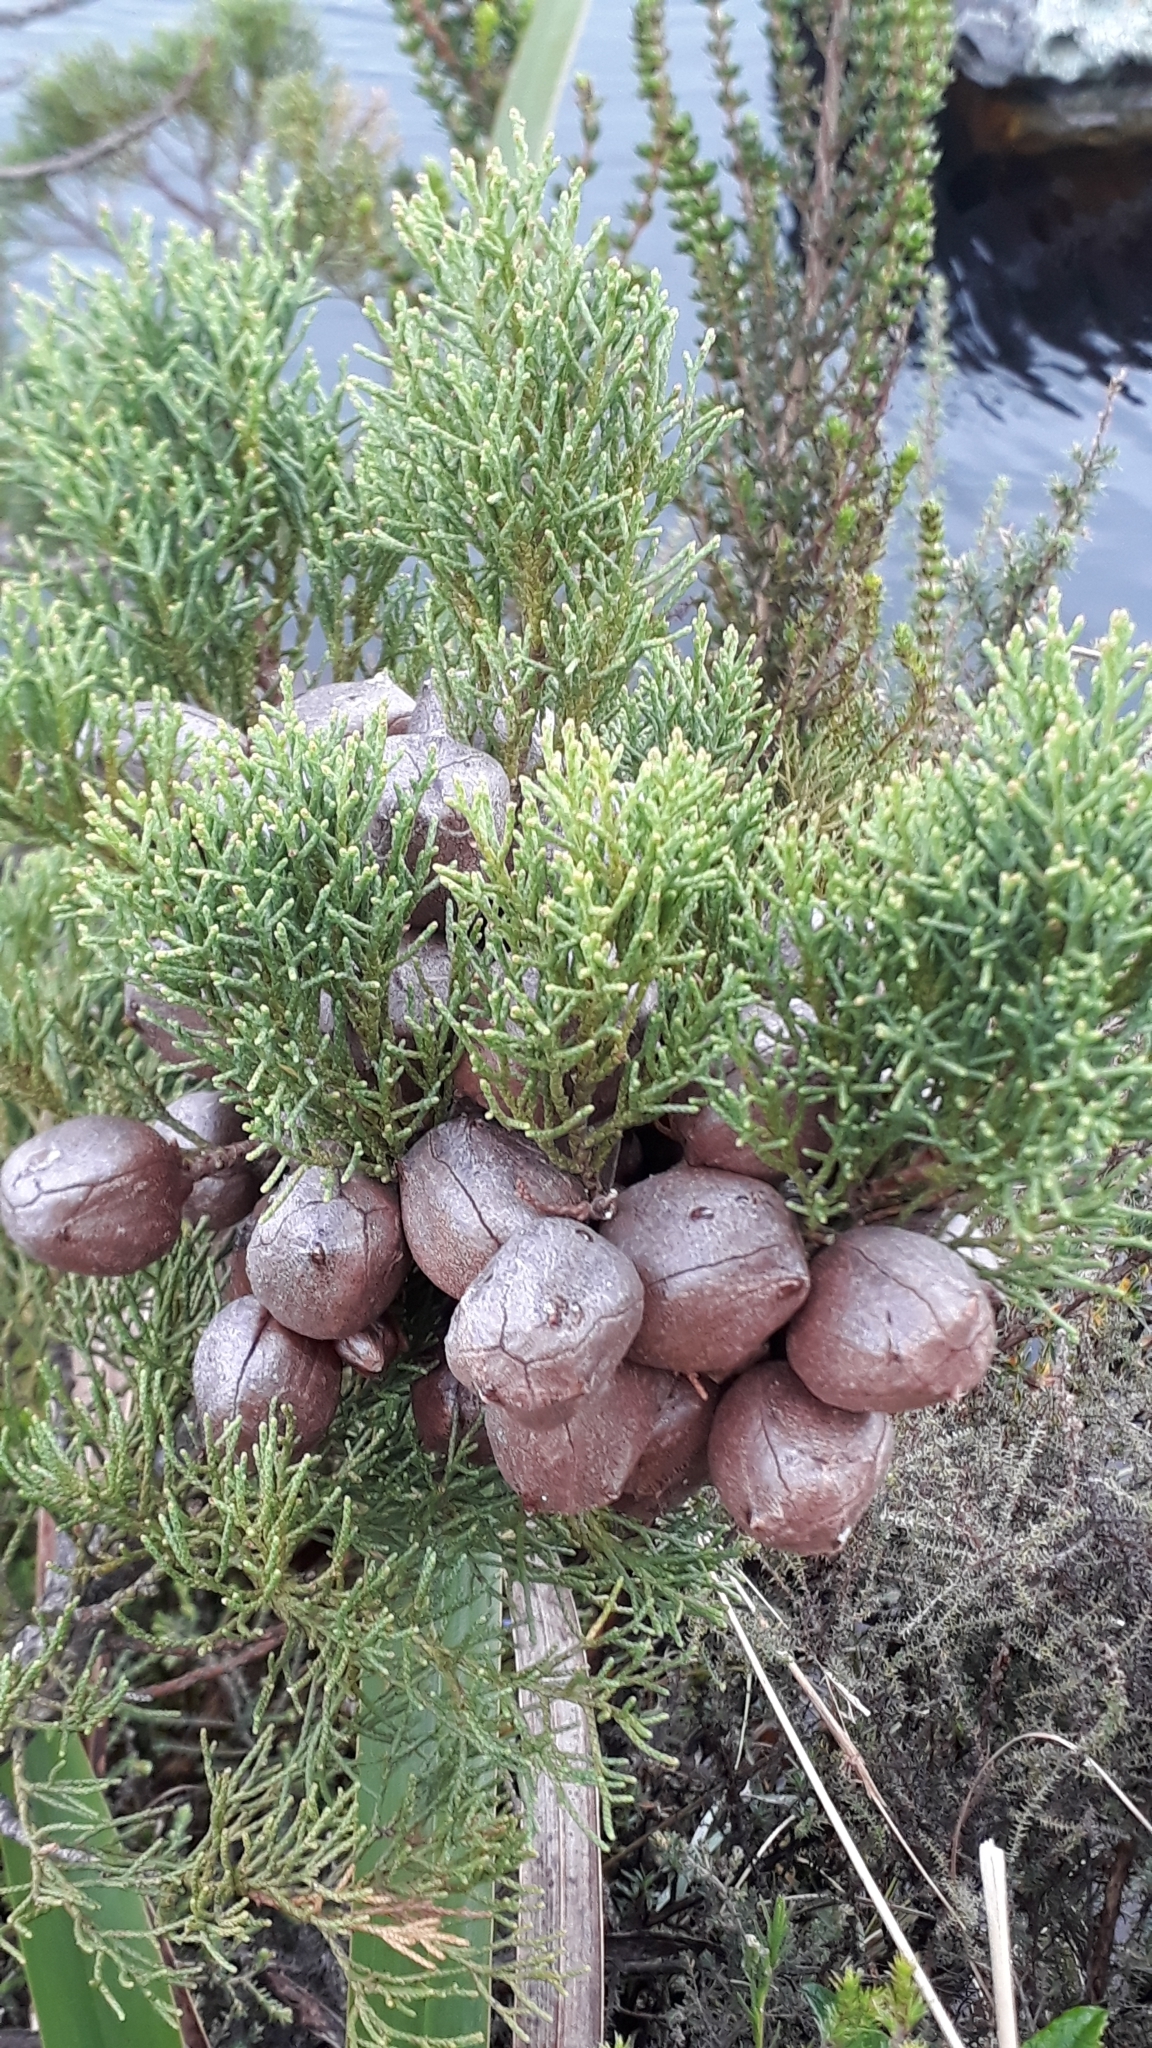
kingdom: Plantae
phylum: Tracheophyta
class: Pinopsida
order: Pinales
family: Cupressaceae
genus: Widdringtonia
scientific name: Widdringtonia nodiflora
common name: Cape cypress
